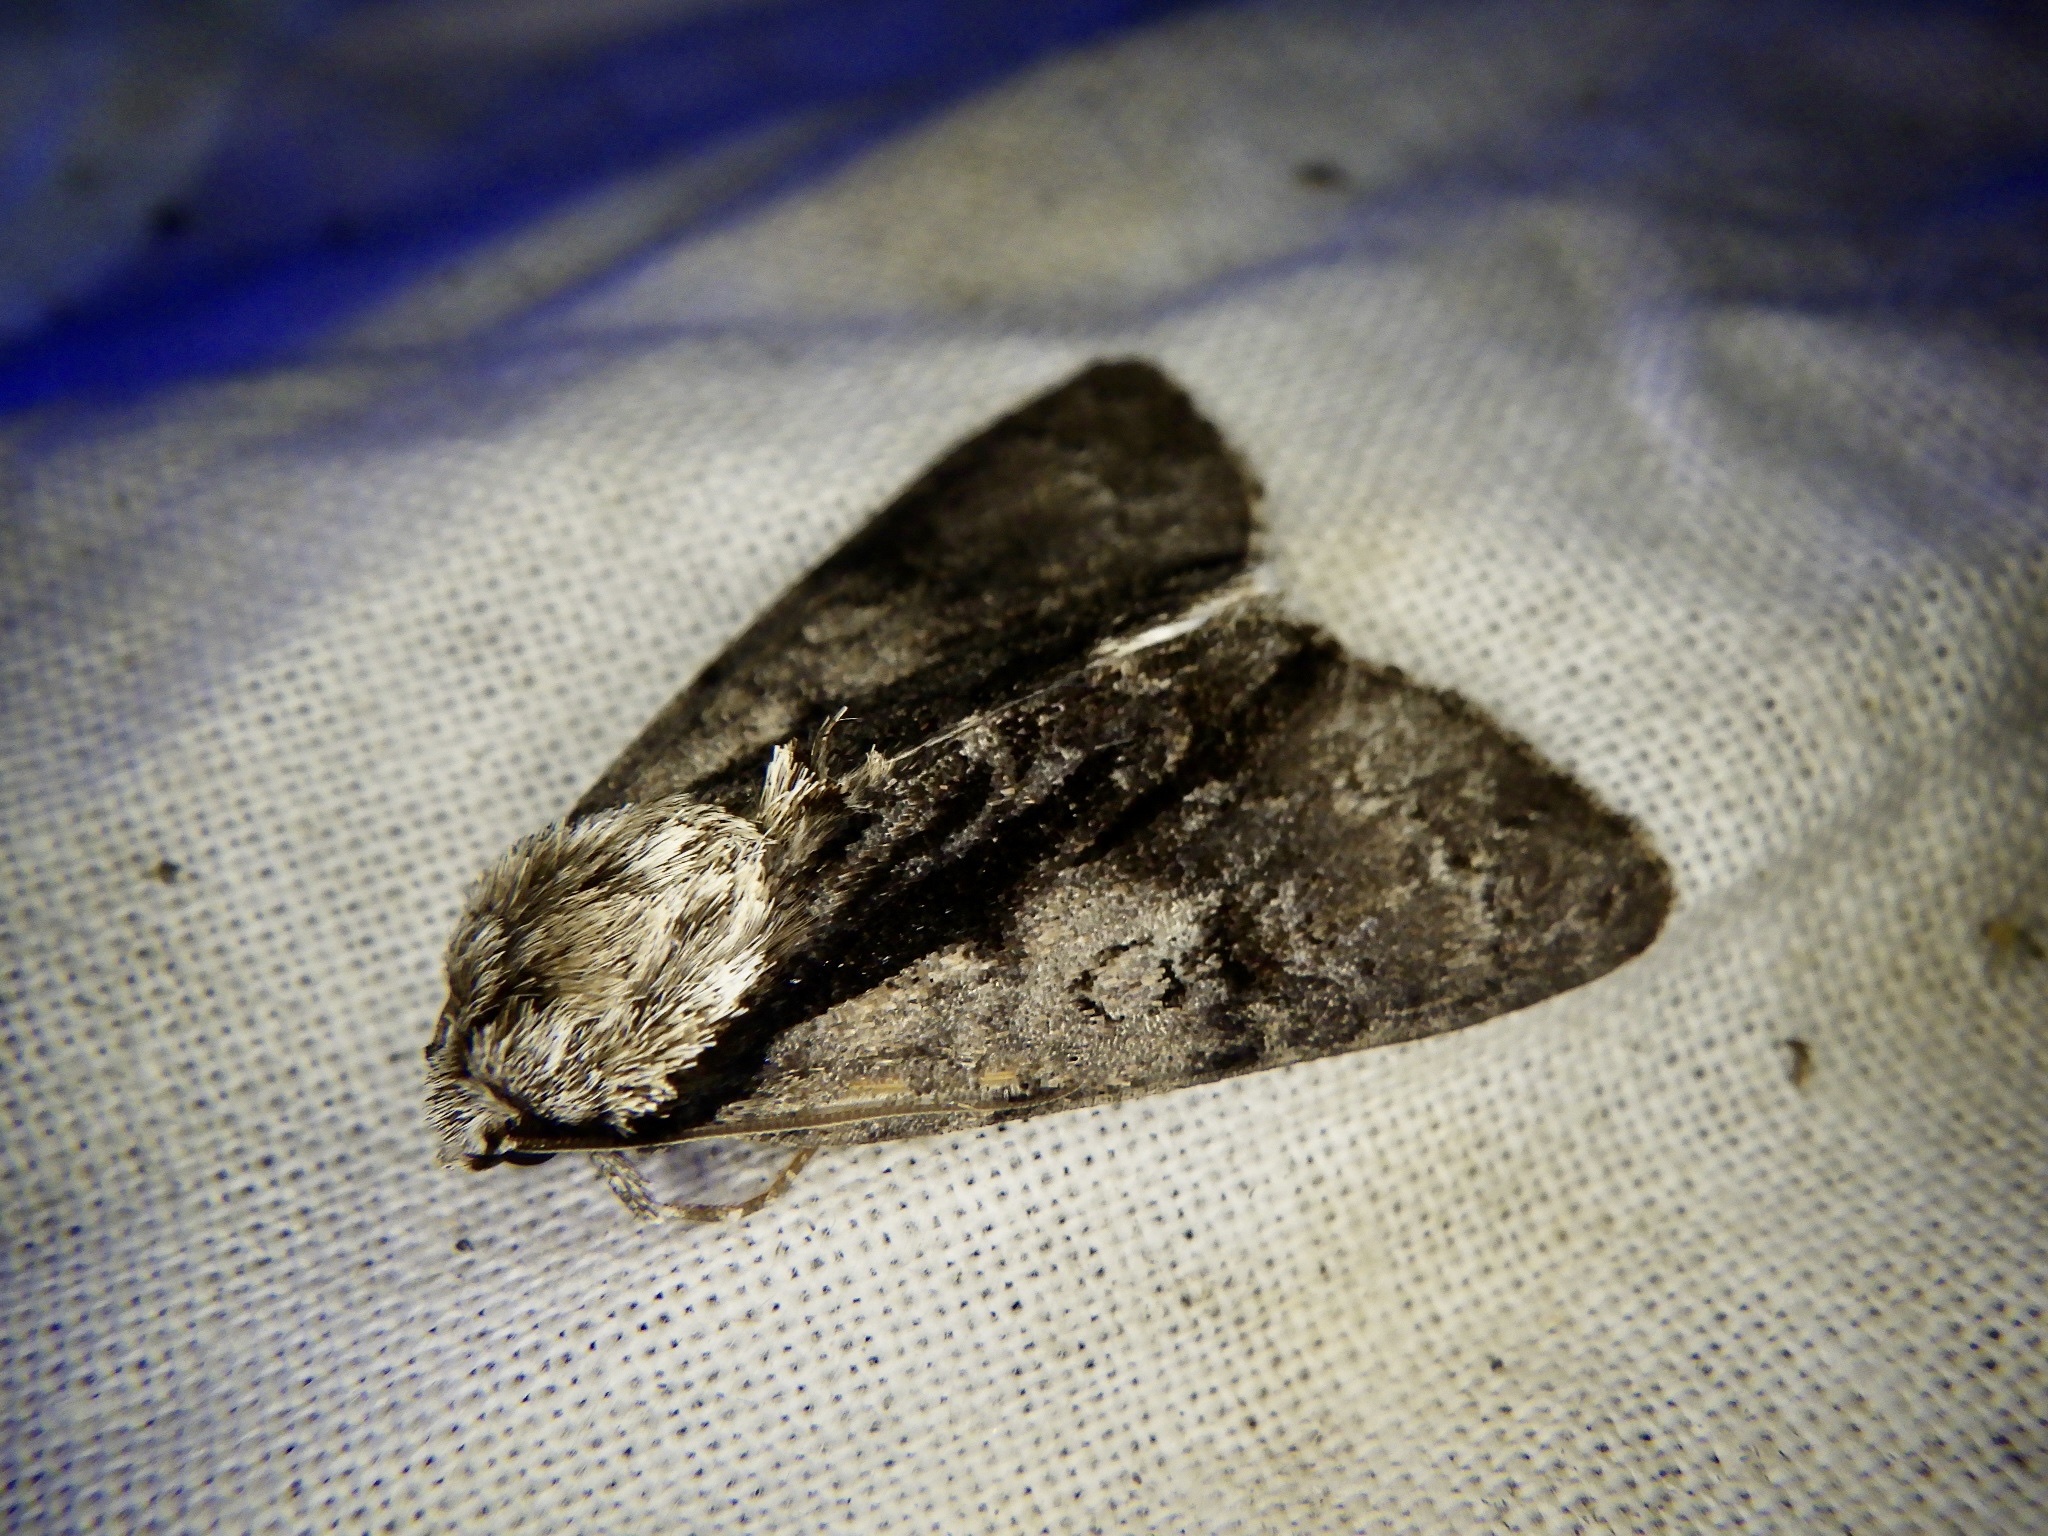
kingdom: Animalia
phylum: Arthropoda
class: Insecta
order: Lepidoptera
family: Noctuidae
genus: Acronicta
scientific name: Acronicta alni
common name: Alder moth
